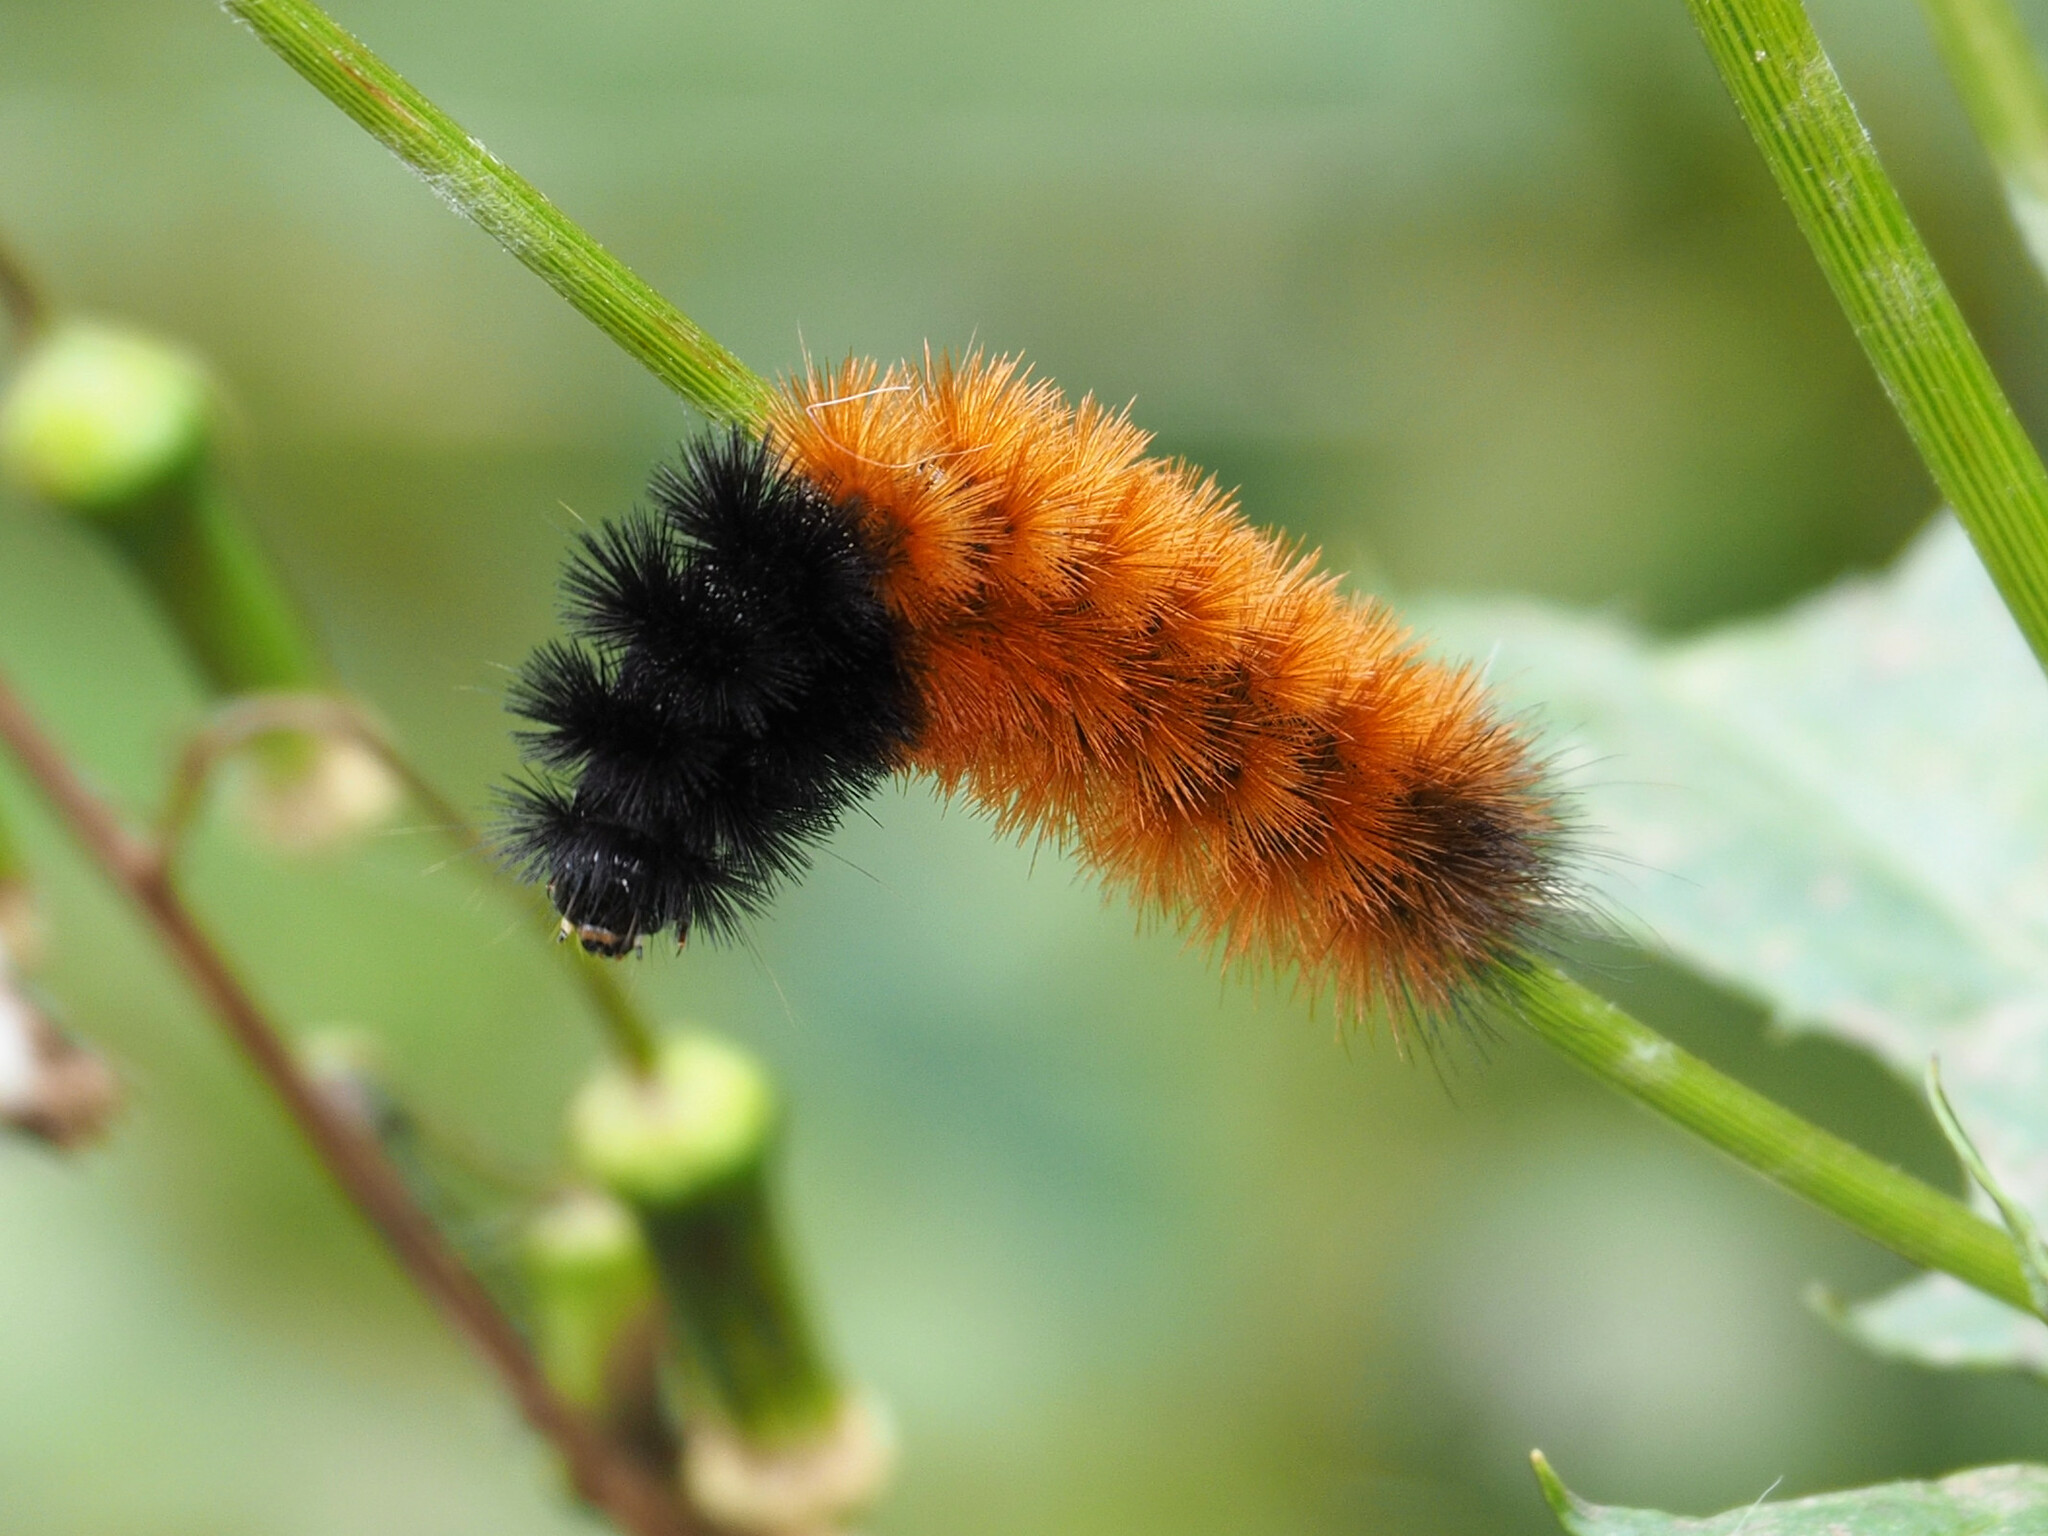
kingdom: Animalia
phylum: Arthropoda
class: Insecta
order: Lepidoptera
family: Erebidae
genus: Pyrrharctia
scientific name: Pyrrharctia isabella
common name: Isabella tiger moth
